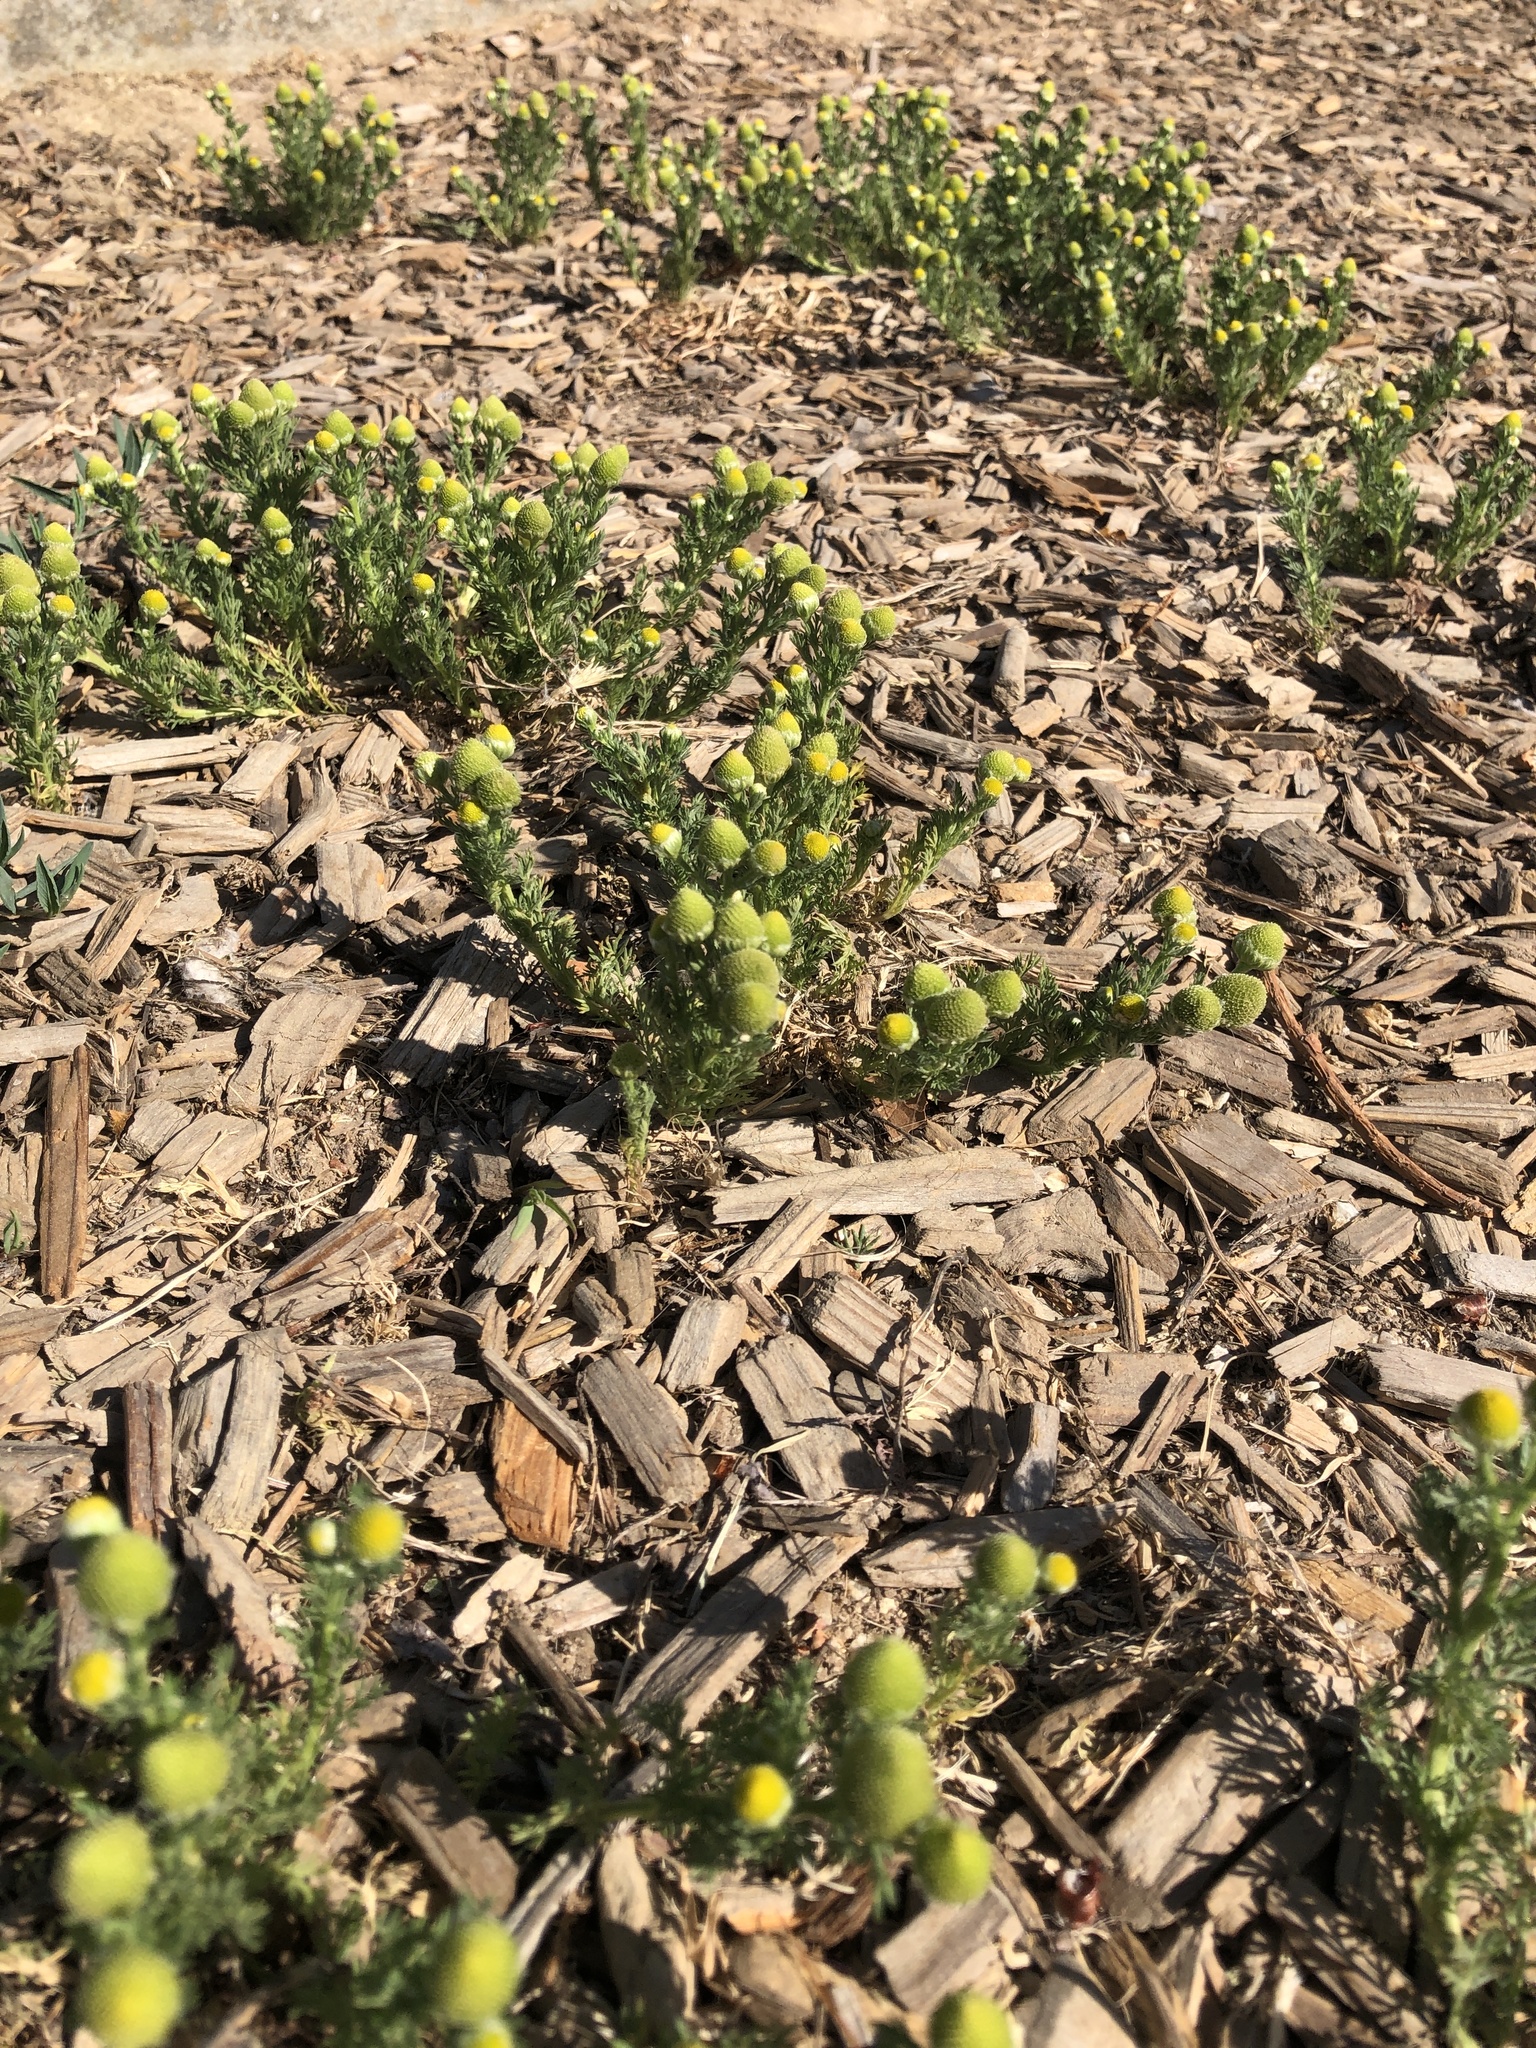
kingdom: Plantae
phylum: Tracheophyta
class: Magnoliopsida
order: Asterales
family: Asteraceae
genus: Matricaria
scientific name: Matricaria discoidea
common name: Disc mayweed
